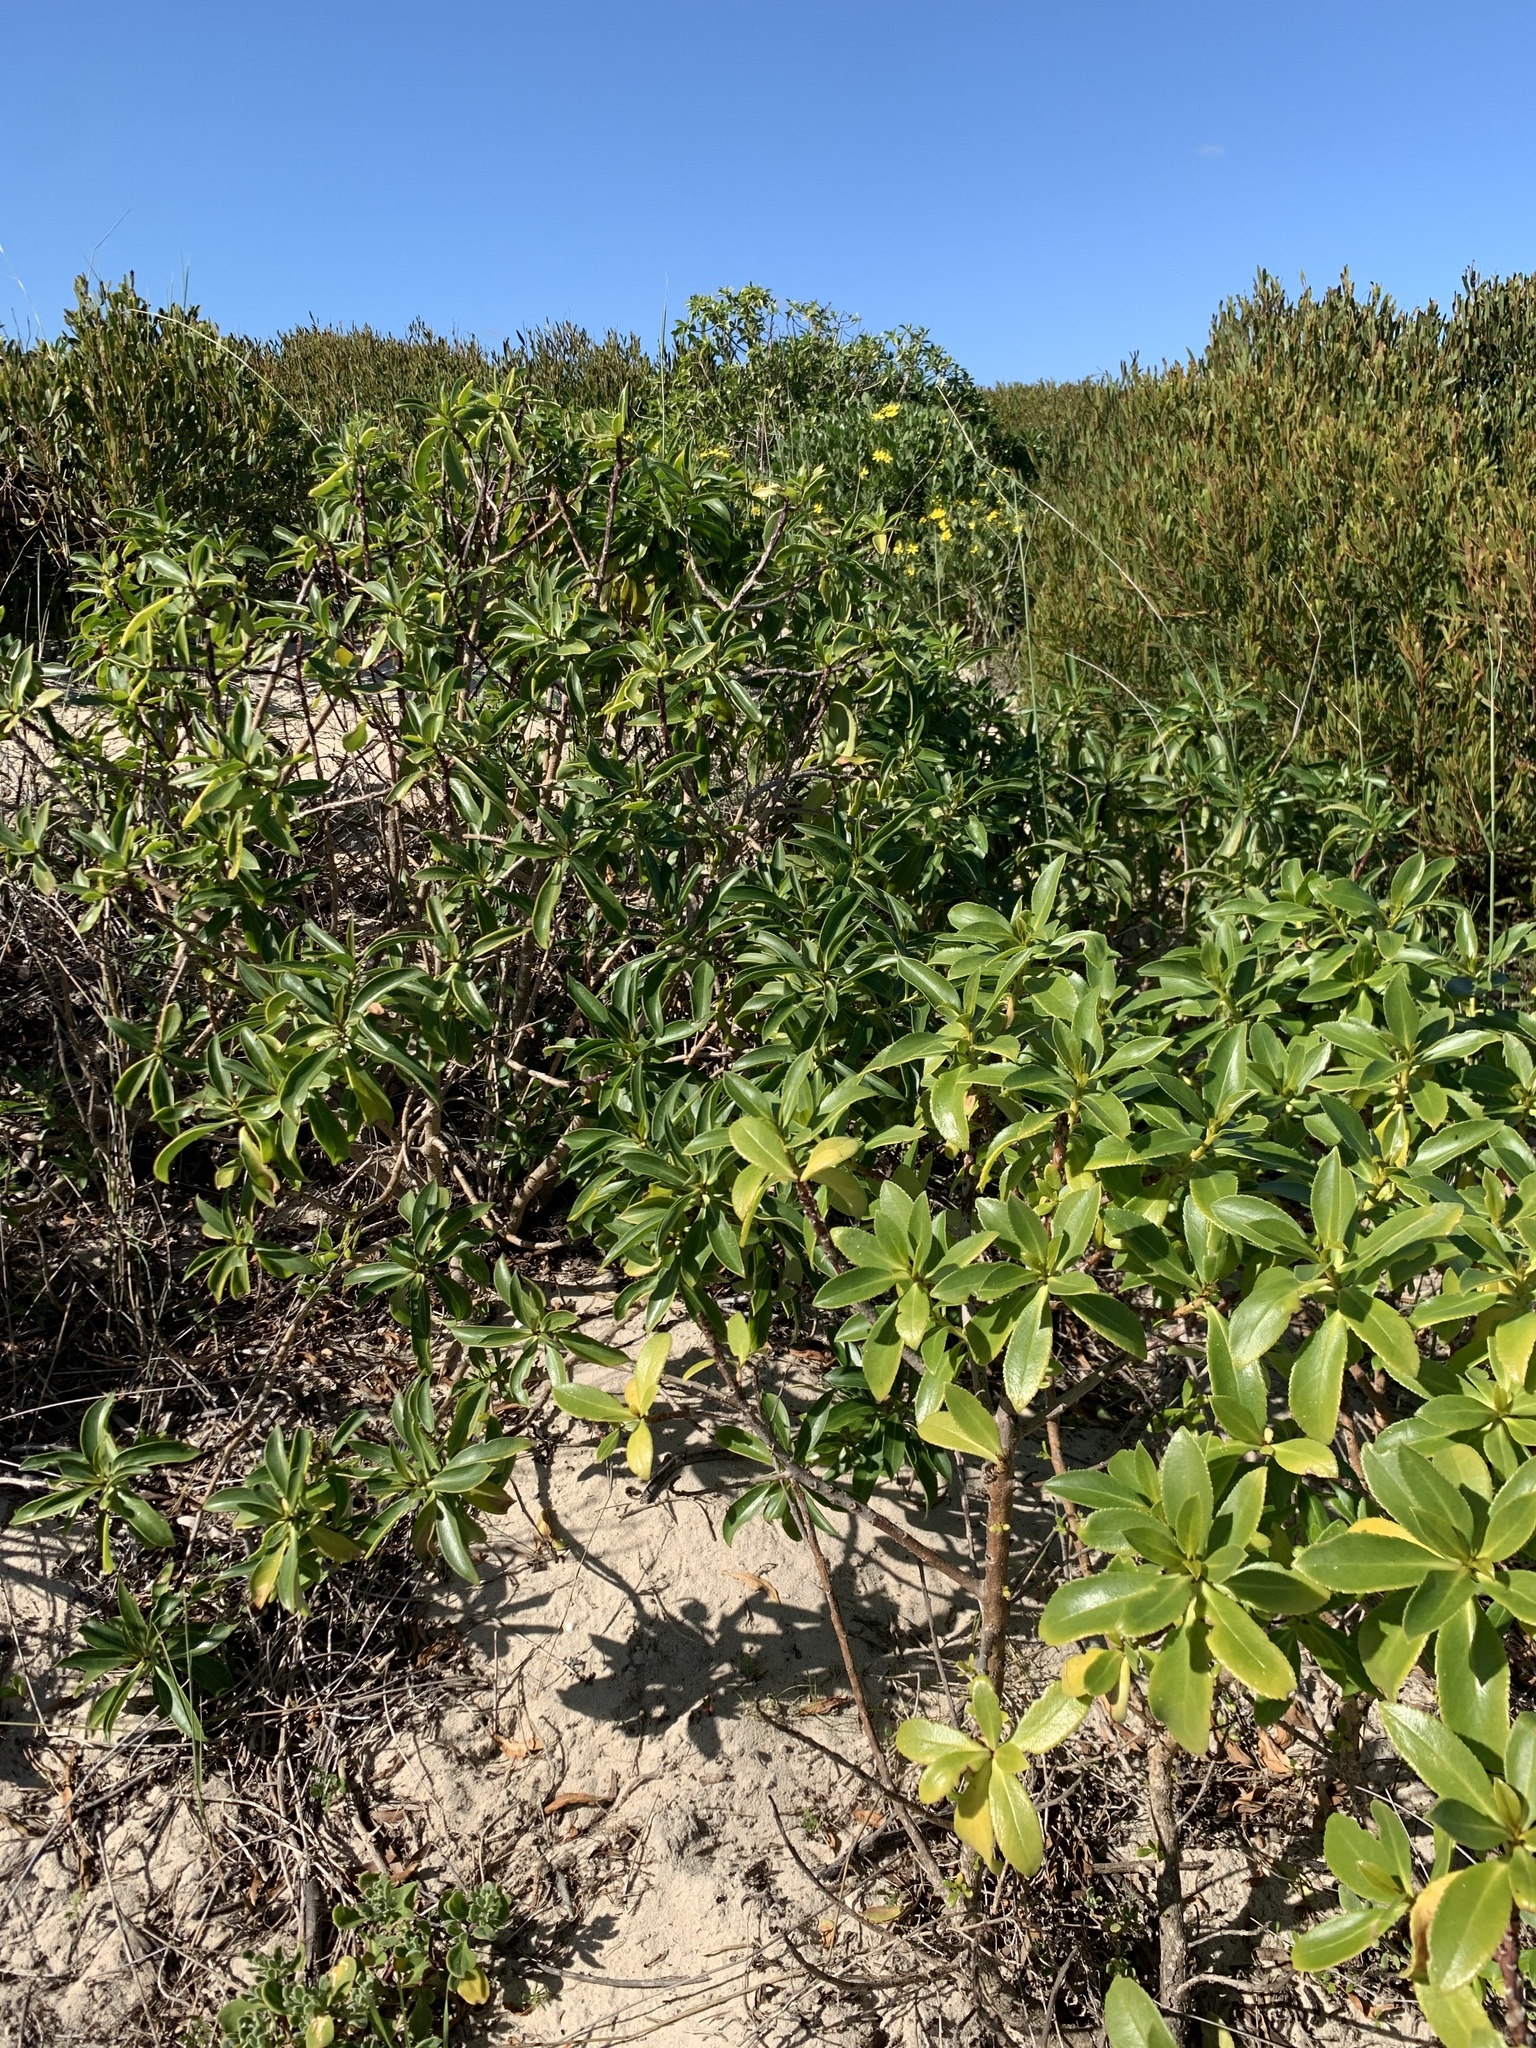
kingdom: Plantae
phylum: Tracheophyta
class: Magnoliopsida
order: Lamiales
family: Scrophulariaceae
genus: Myoporum
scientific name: Myoporum laetum
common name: Ngaio tree
